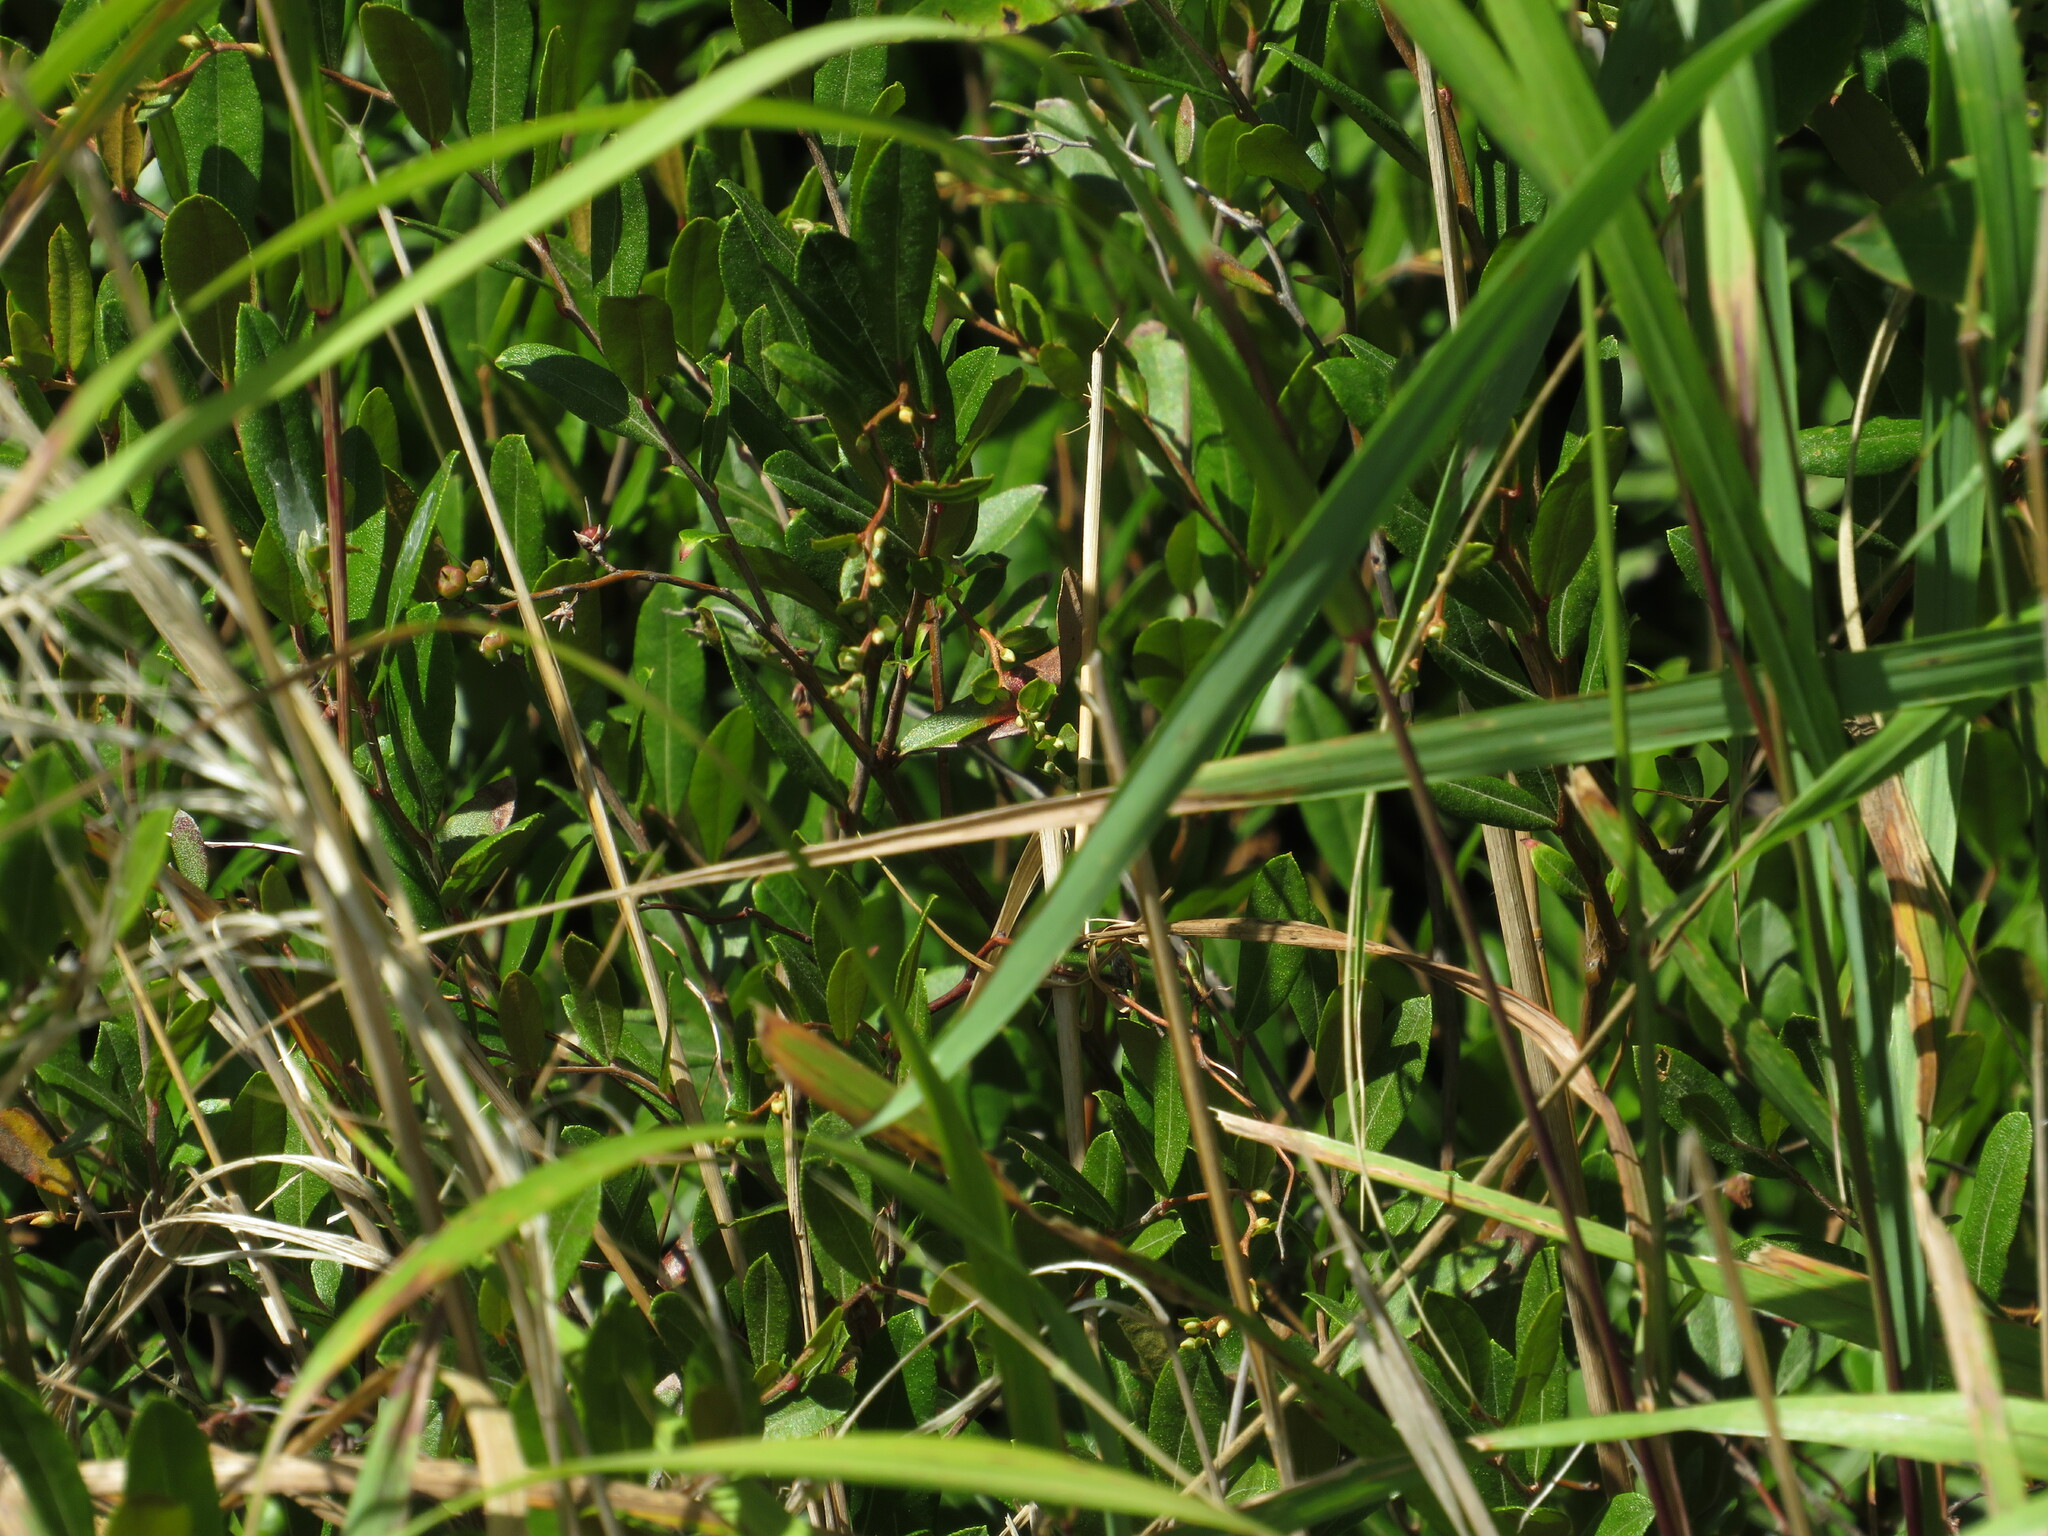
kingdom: Plantae
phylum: Tracheophyta
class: Magnoliopsida
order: Ericales
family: Ericaceae
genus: Chamaedaphne
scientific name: Chamaedaphne calyculata
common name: Leatherleaf
